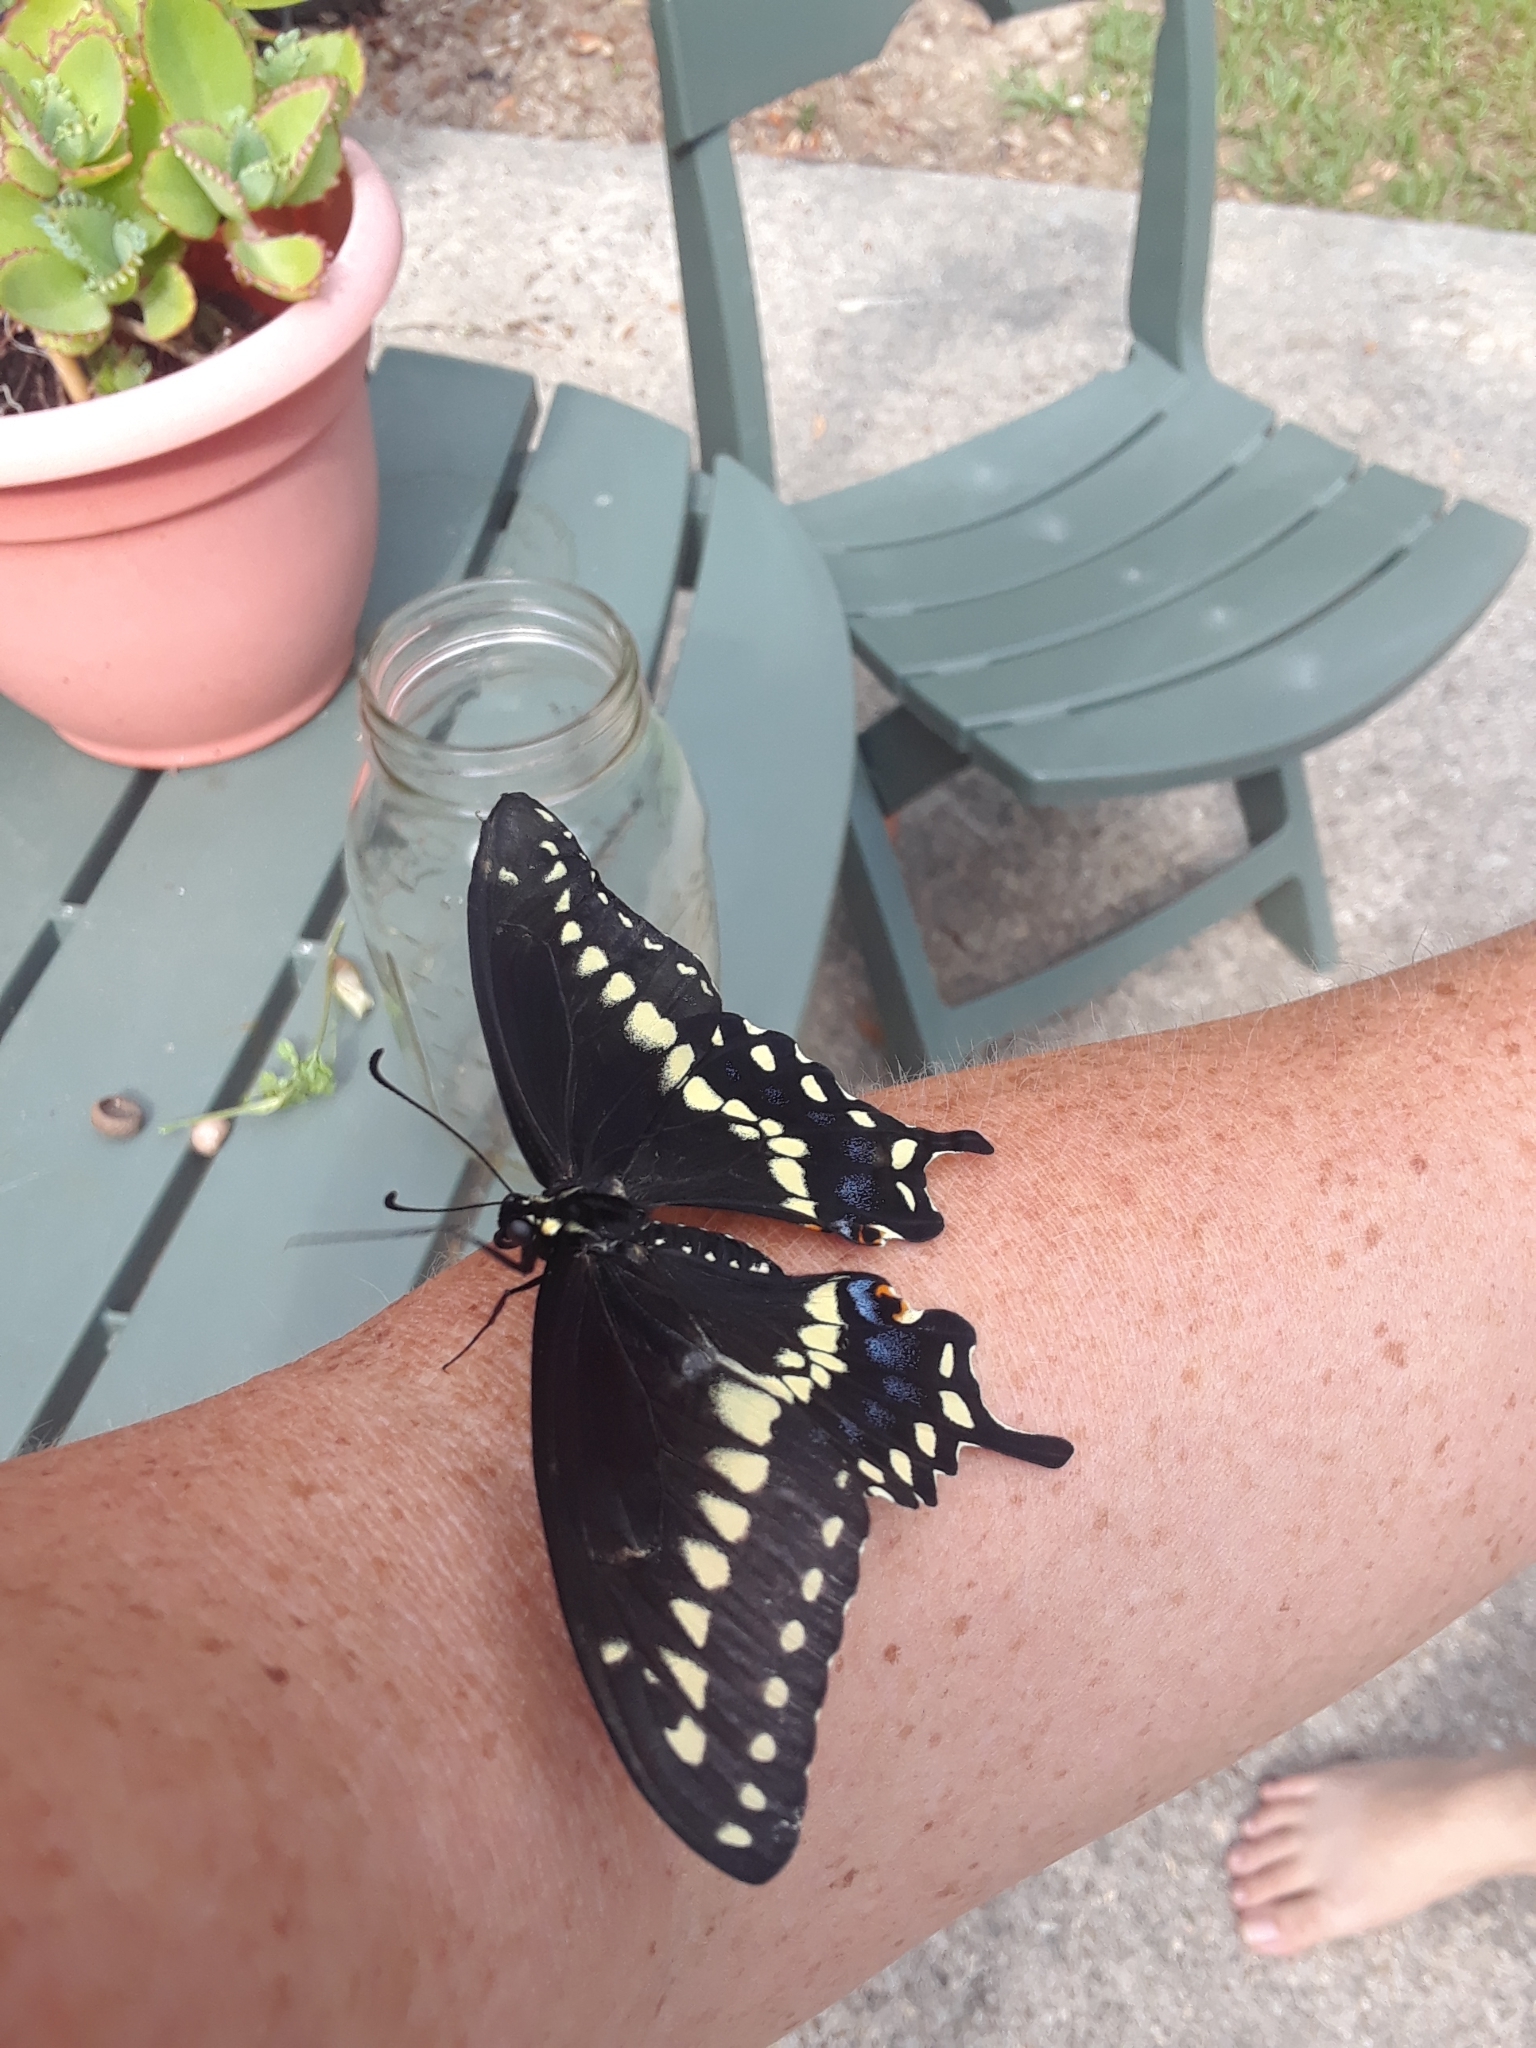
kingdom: Animalia
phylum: Arthropoda
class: Insecta
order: Lepidoptera
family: Papilionidae
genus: Papilio
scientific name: Papilio polyxenes
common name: Black swallowtail
